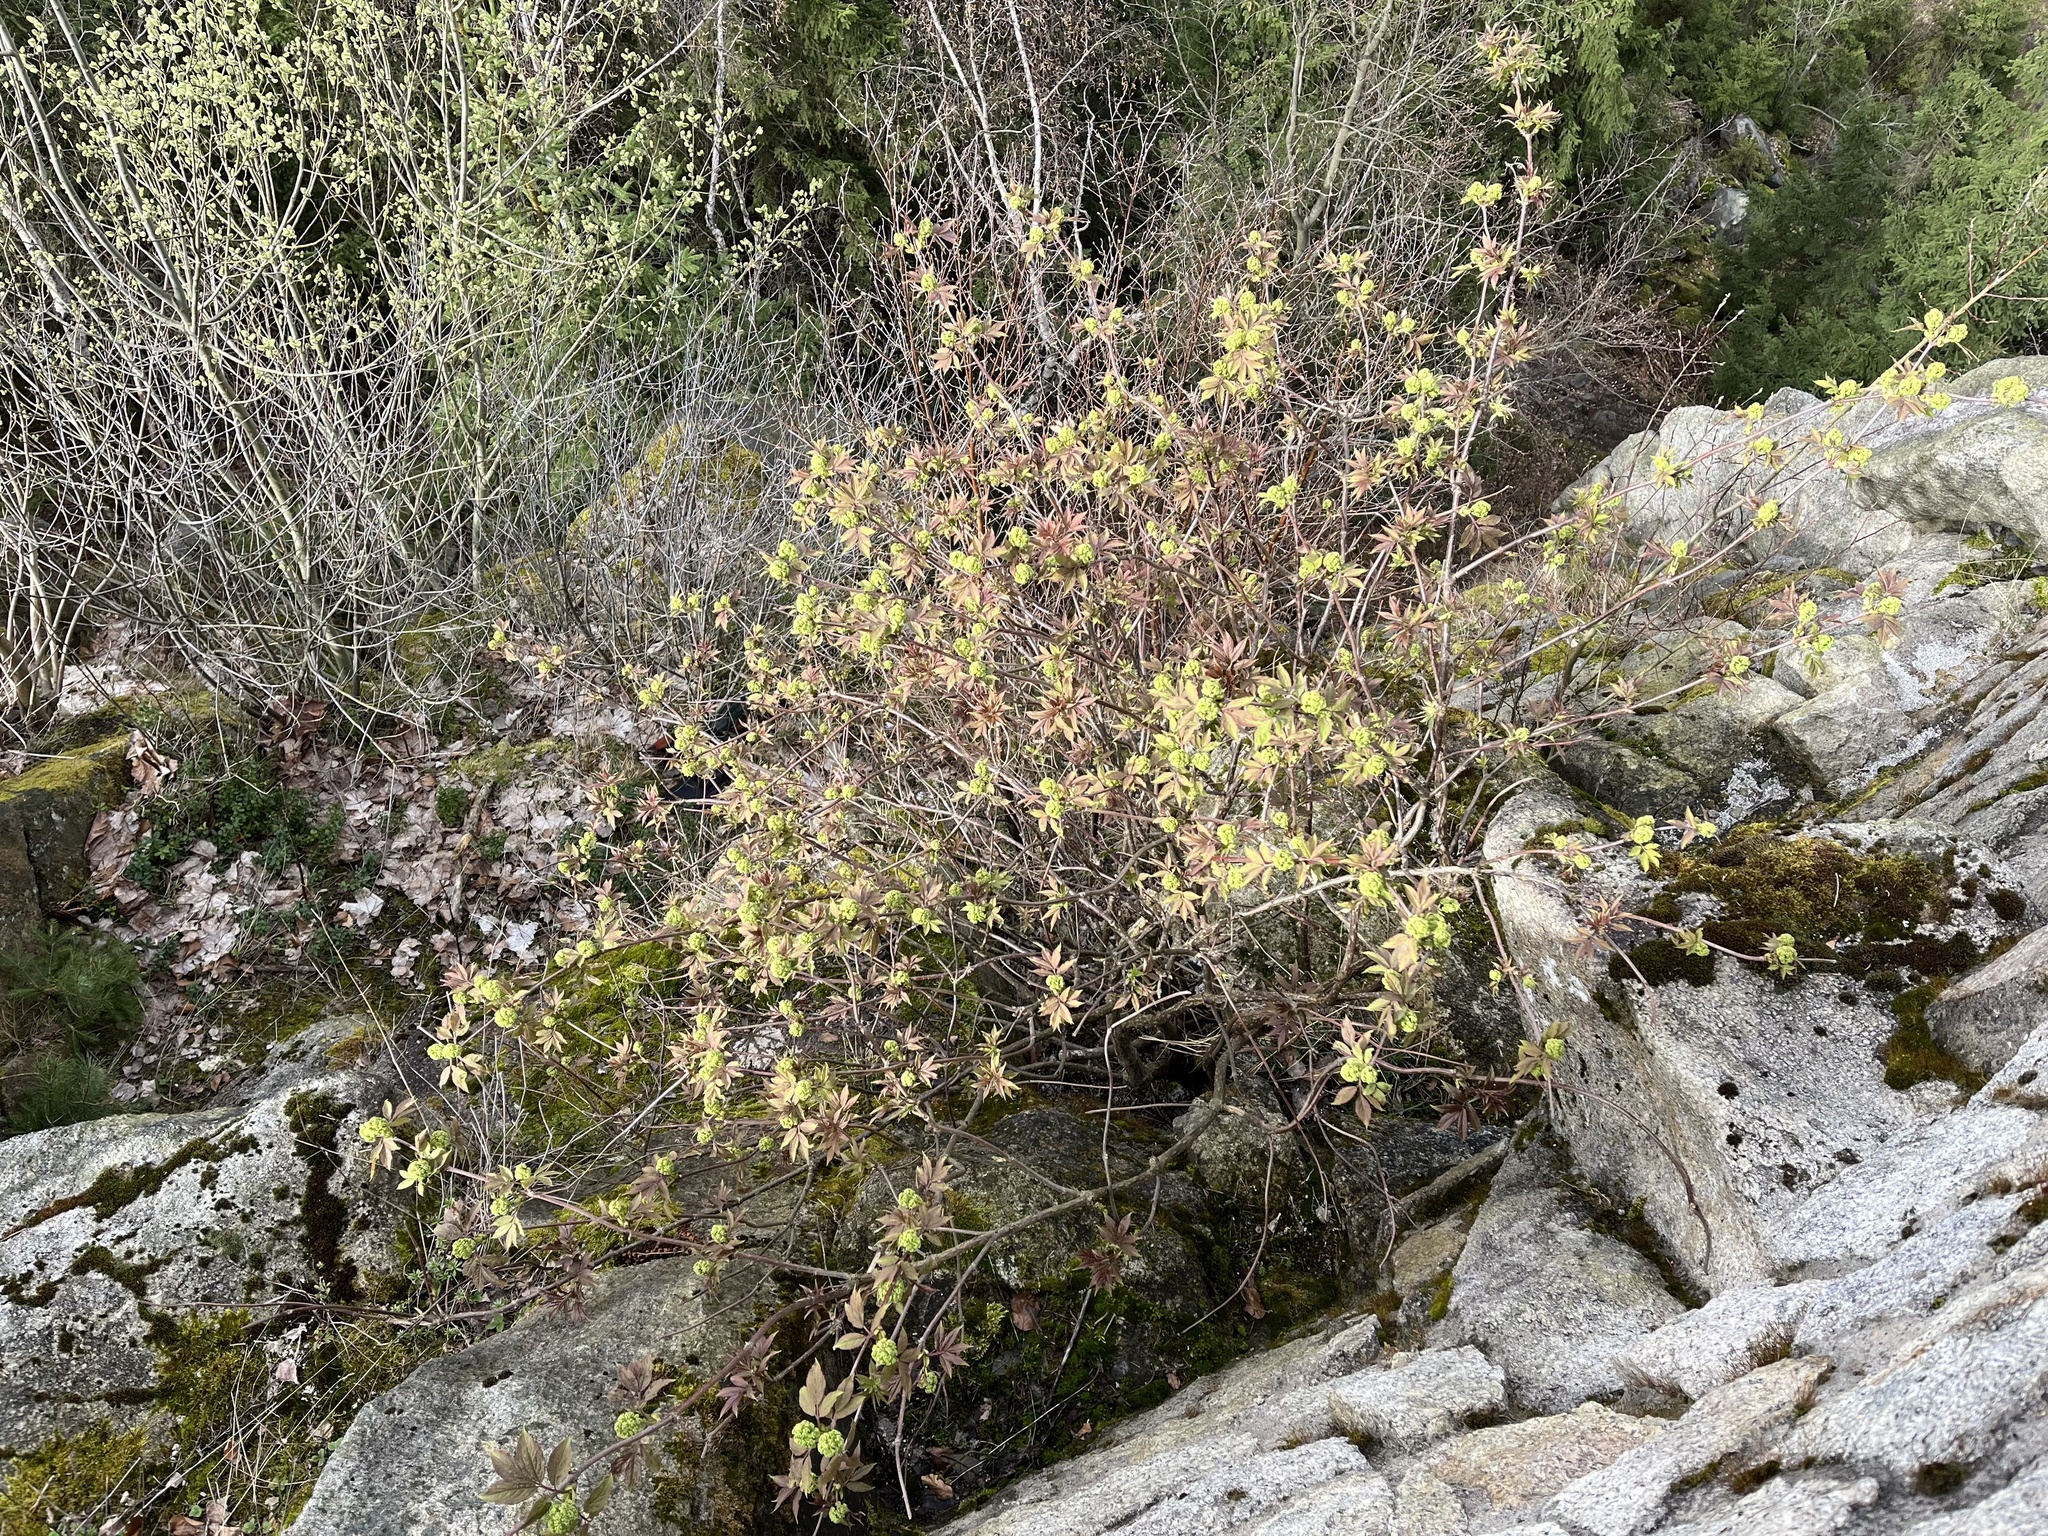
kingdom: Plantae
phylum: Tracheophyta
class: Magnoliopsida
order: Dipsacales
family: Viburnaceae
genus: Sambucus
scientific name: Sambucus racemosa
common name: Red-berried elder
